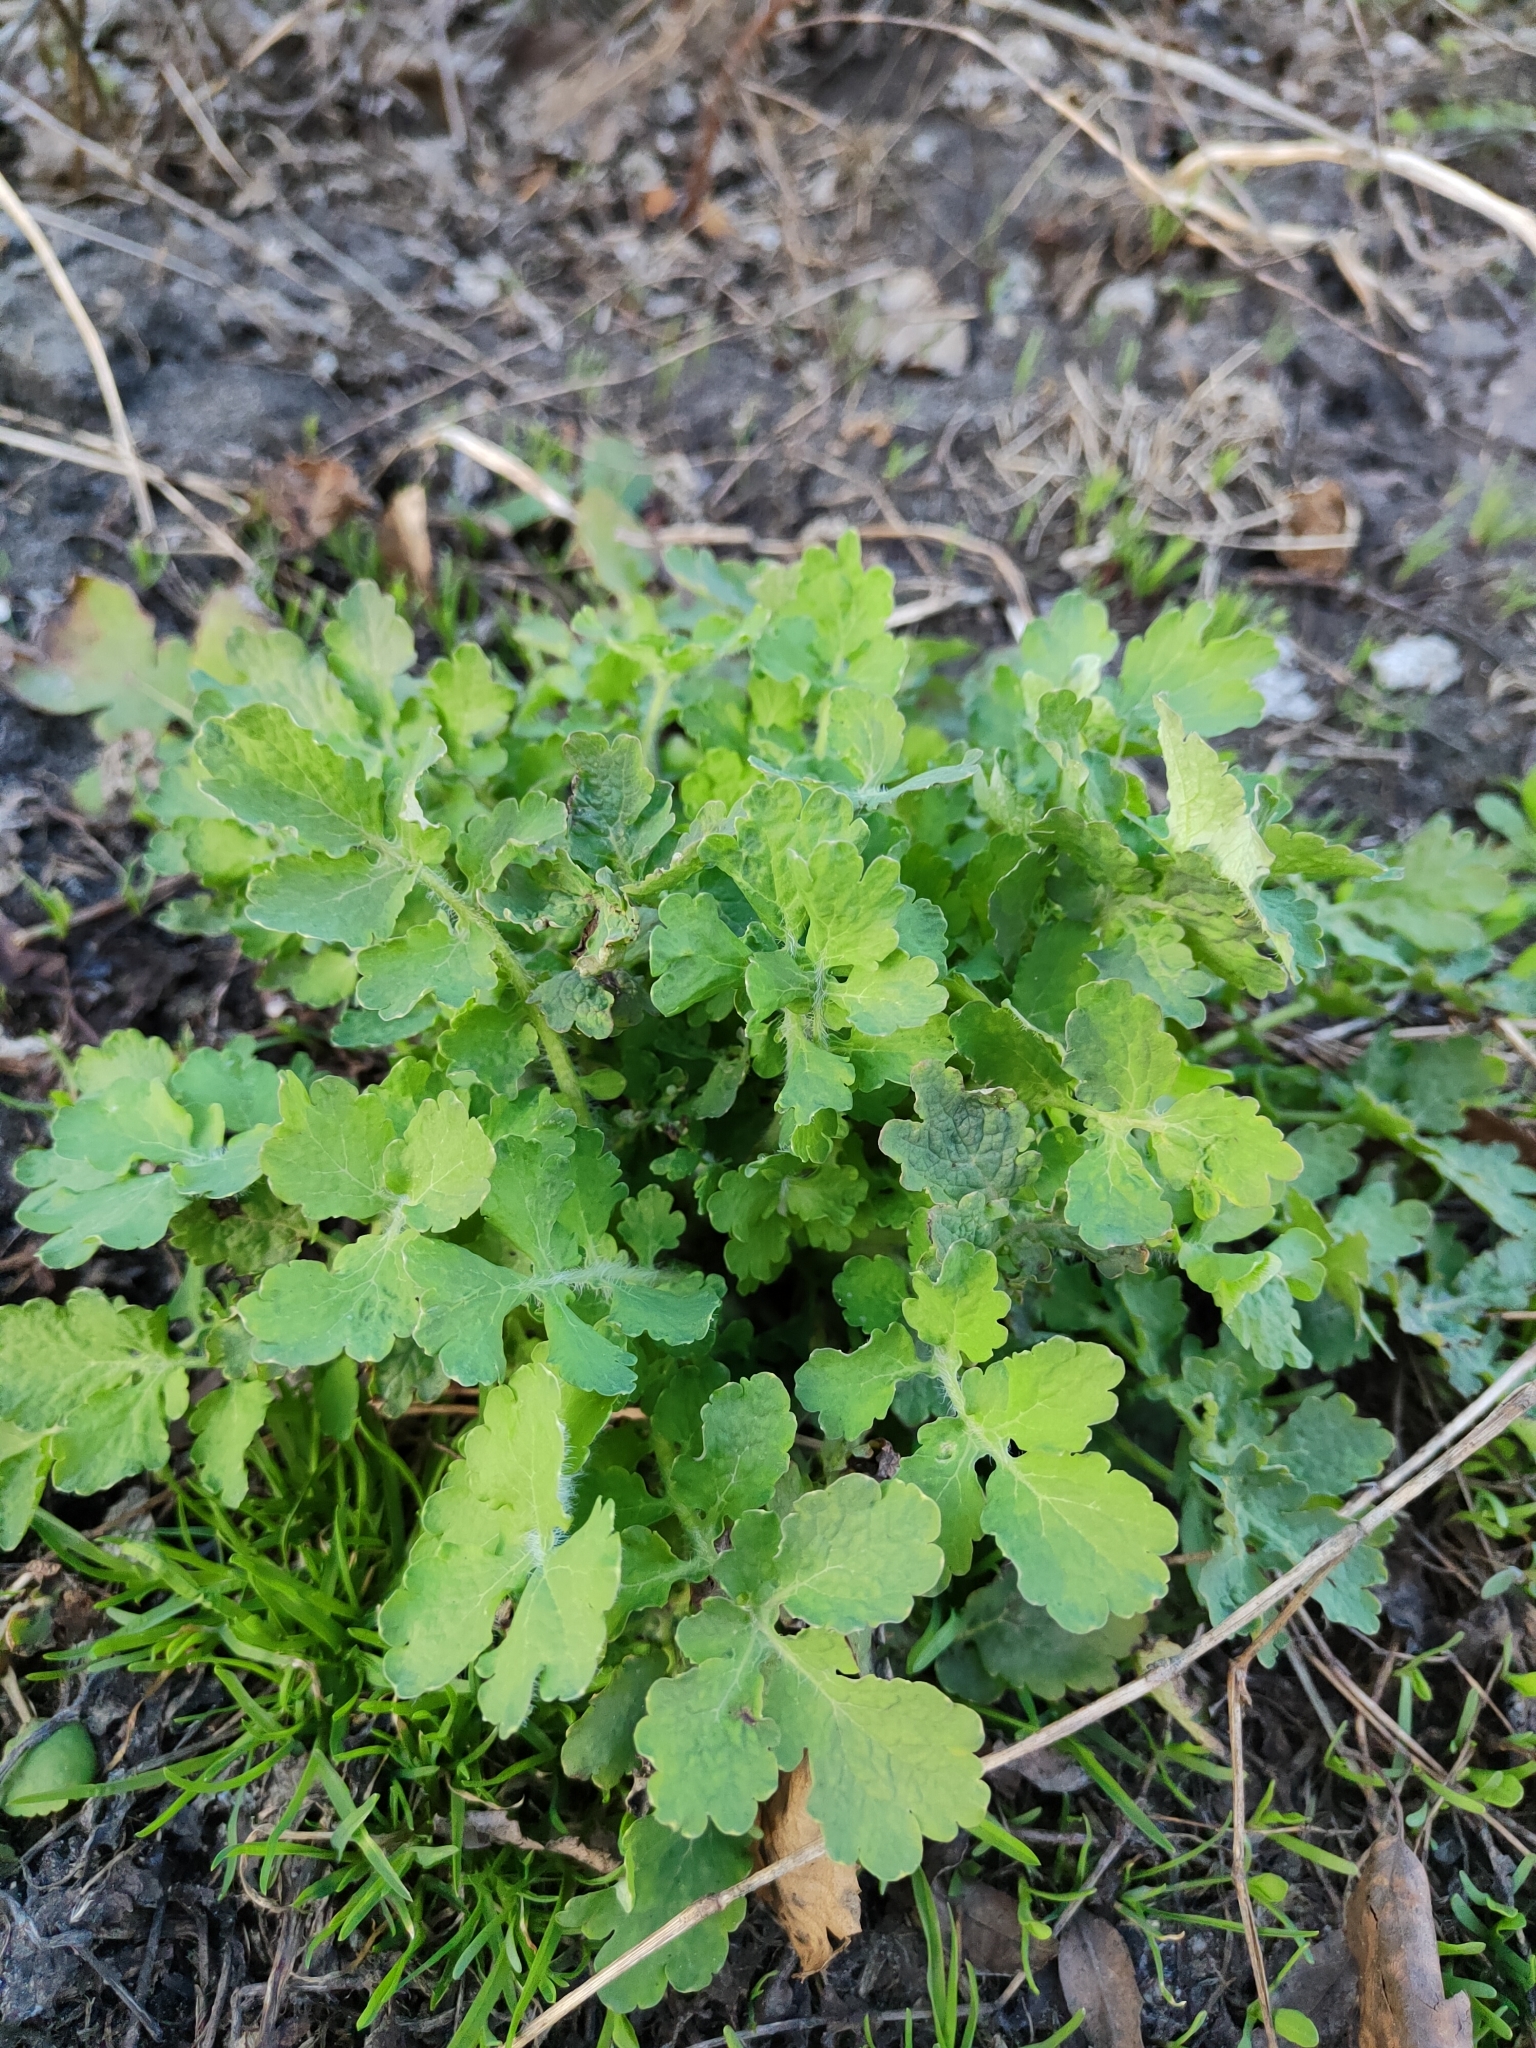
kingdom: Plantae
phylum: Tracheophyta
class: Magnoliopsida
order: Ranunculales
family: Papaveraceae
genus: Chelidonium
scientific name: Chelidonium majus
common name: Greater celandine
